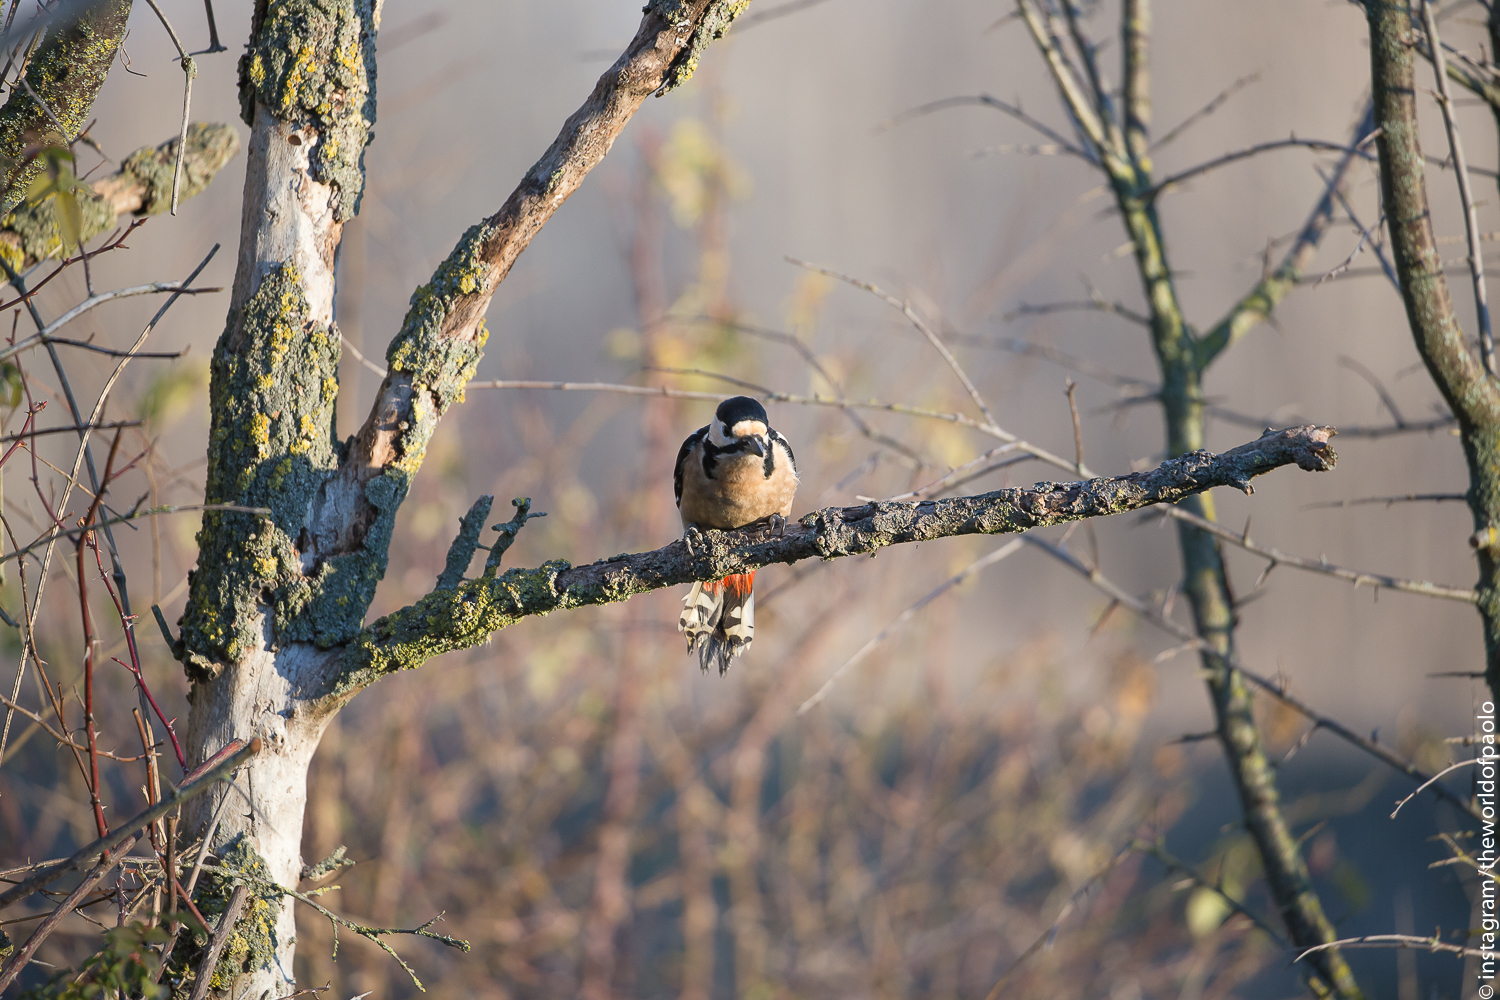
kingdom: Animalia
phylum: Chordata
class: Aves
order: Piciformes
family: Picidae
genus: Dendrocopos
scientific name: Dendrocopos major
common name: Great spotted woodpecker
